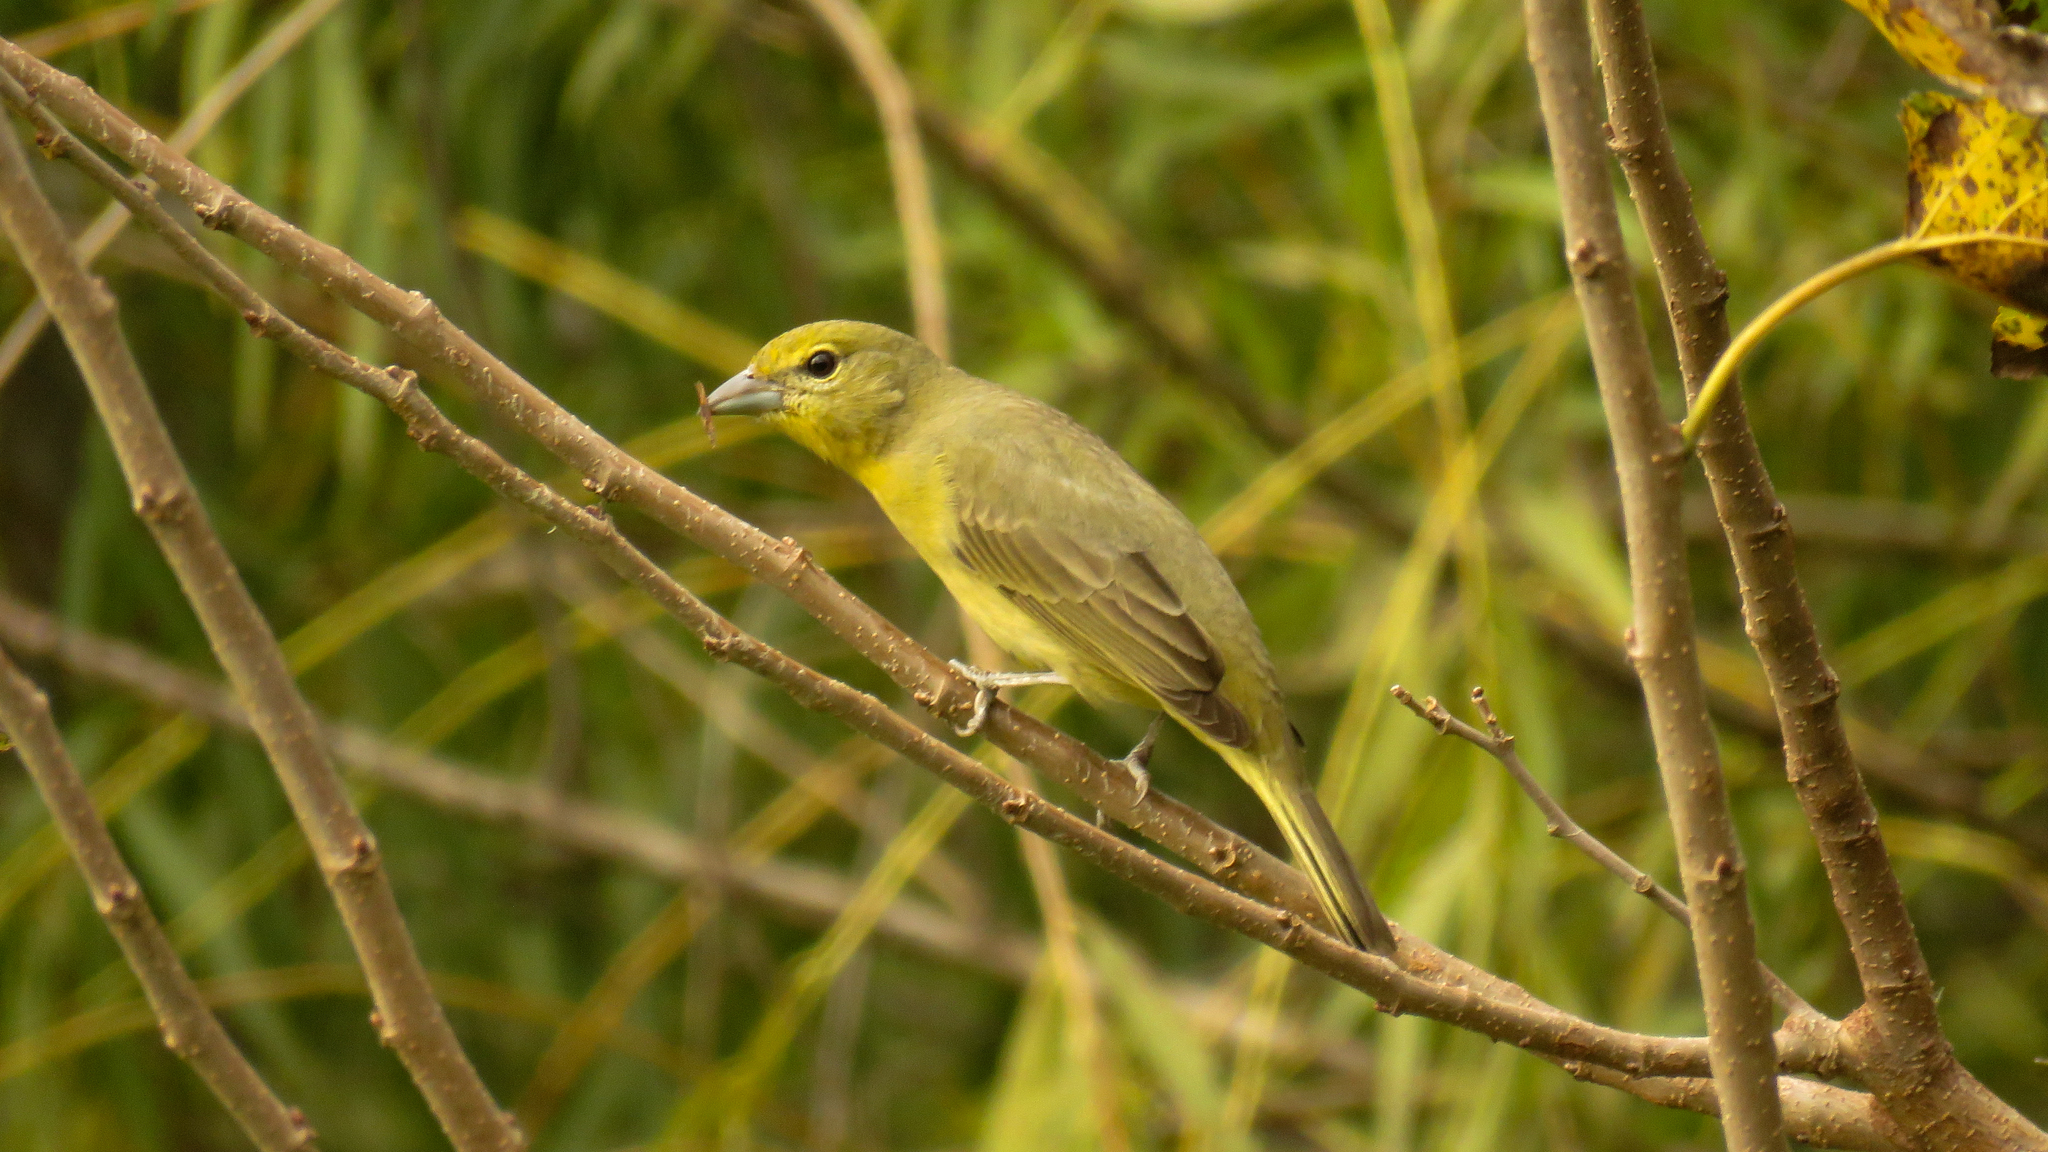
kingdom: Animalia
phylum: Chordata
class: Aves
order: Passeriformes
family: Cardinalidae
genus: Piranga
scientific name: Piranga flava
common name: Red tanager
